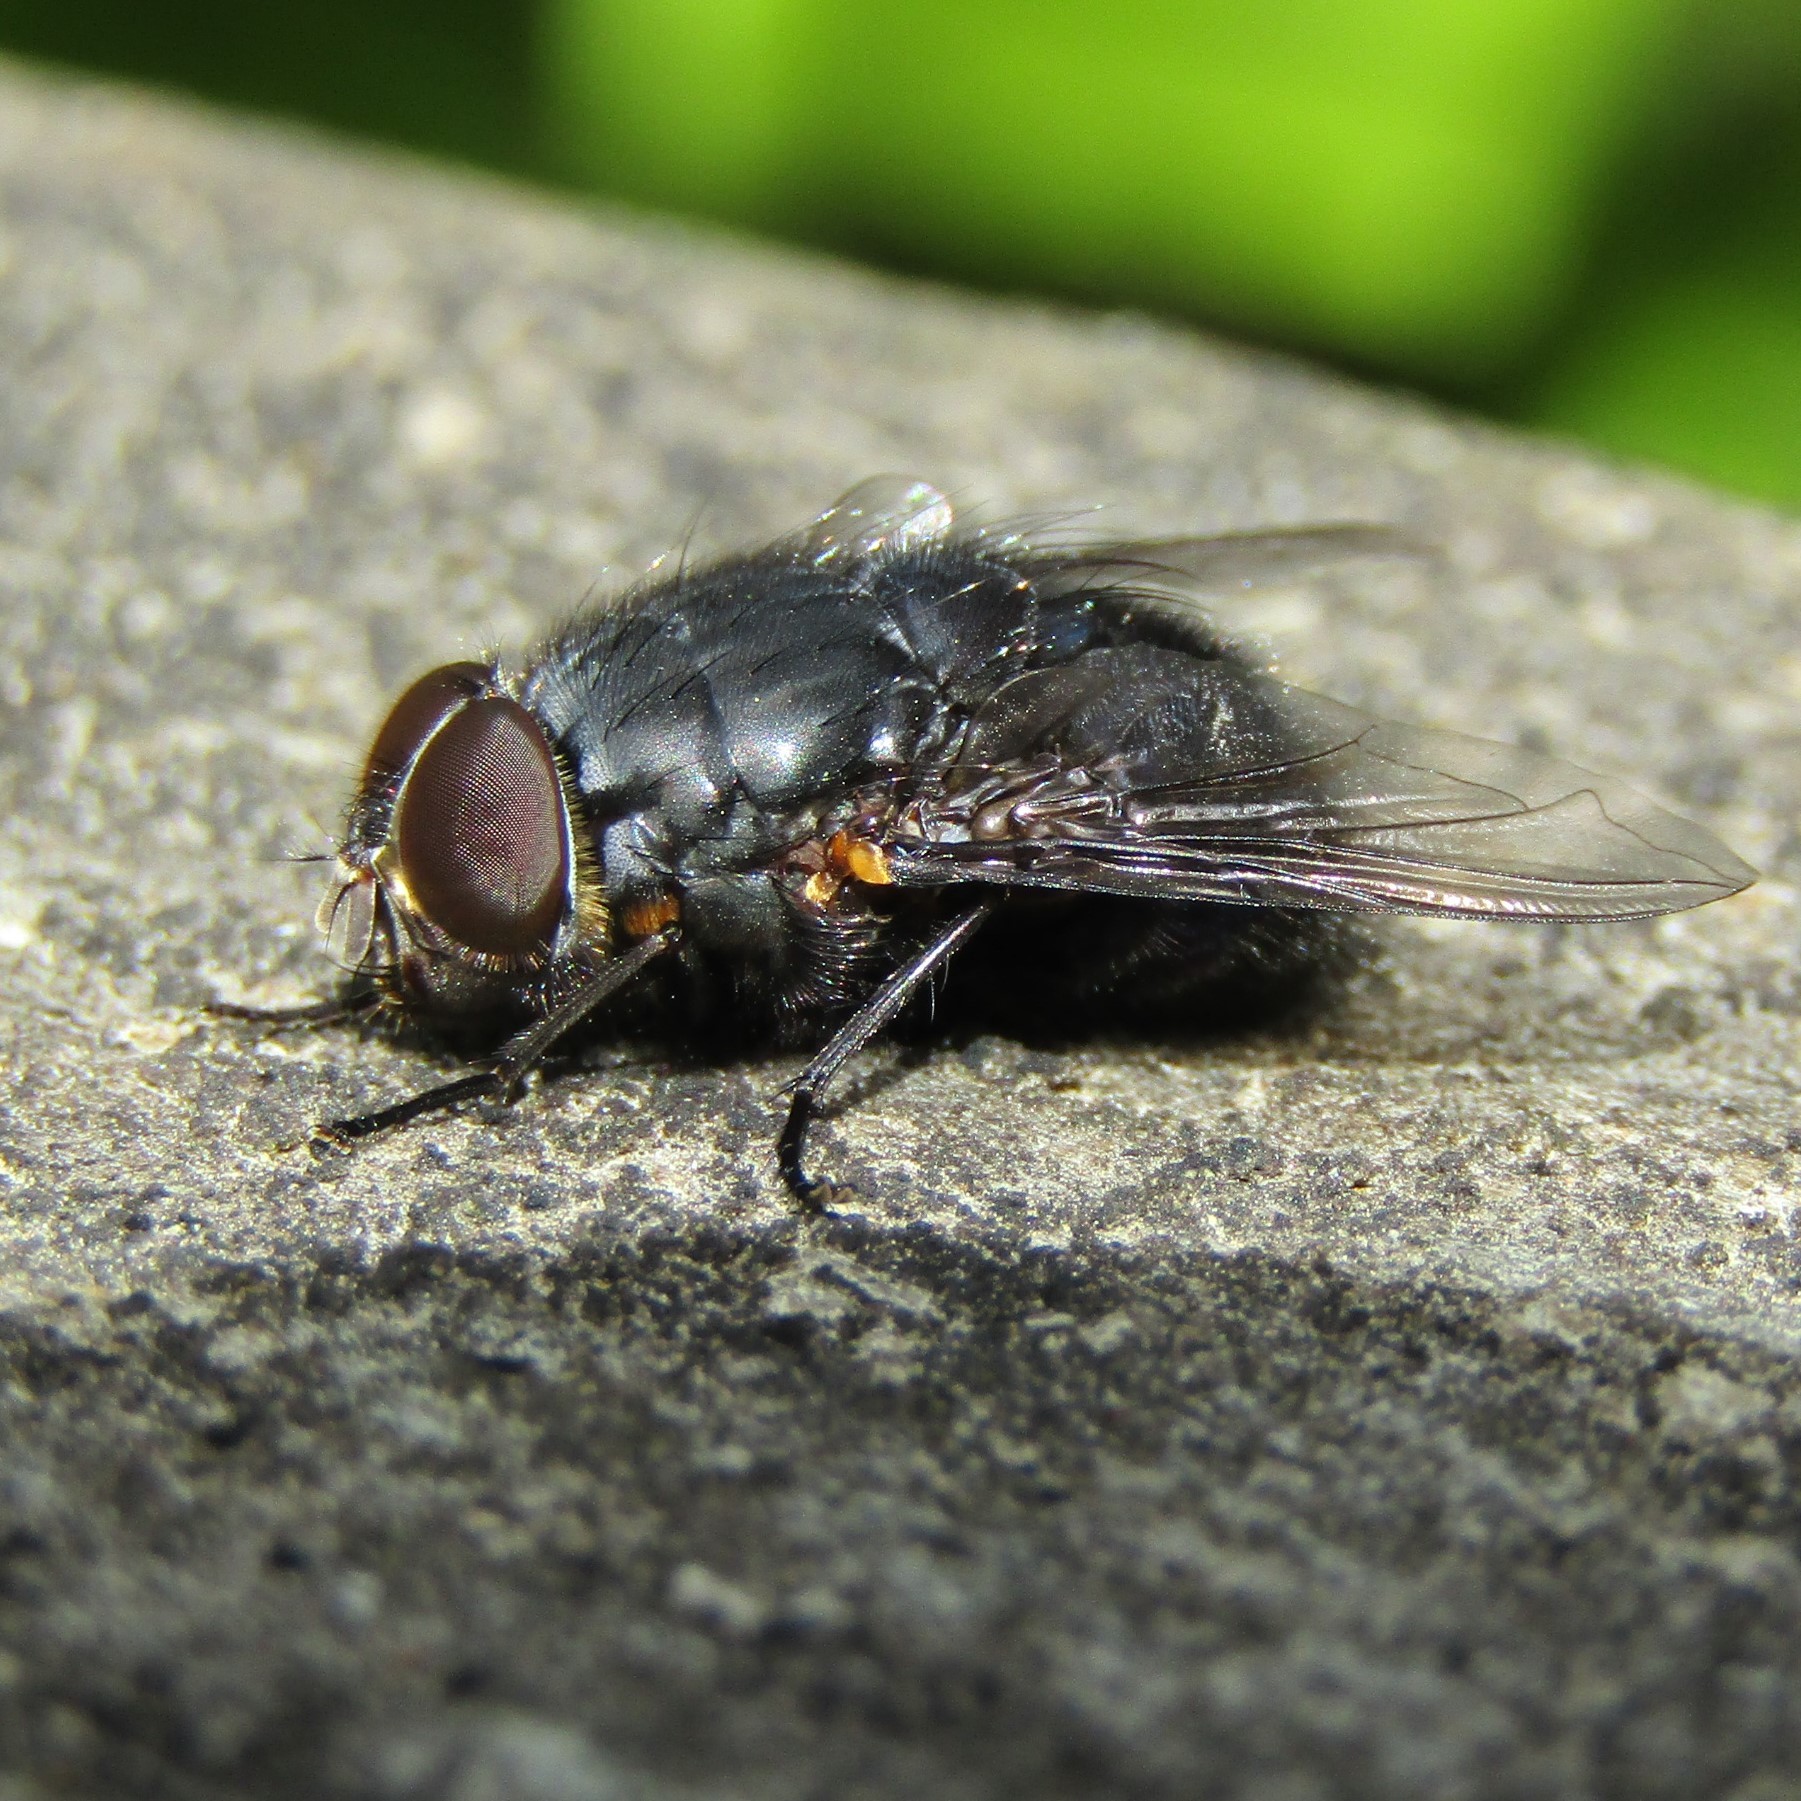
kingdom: Animalia
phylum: Arthropoda
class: Insecta
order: Diptera
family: Calliphoridae
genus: Calliphora
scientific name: Calliphora quadrimaculata
